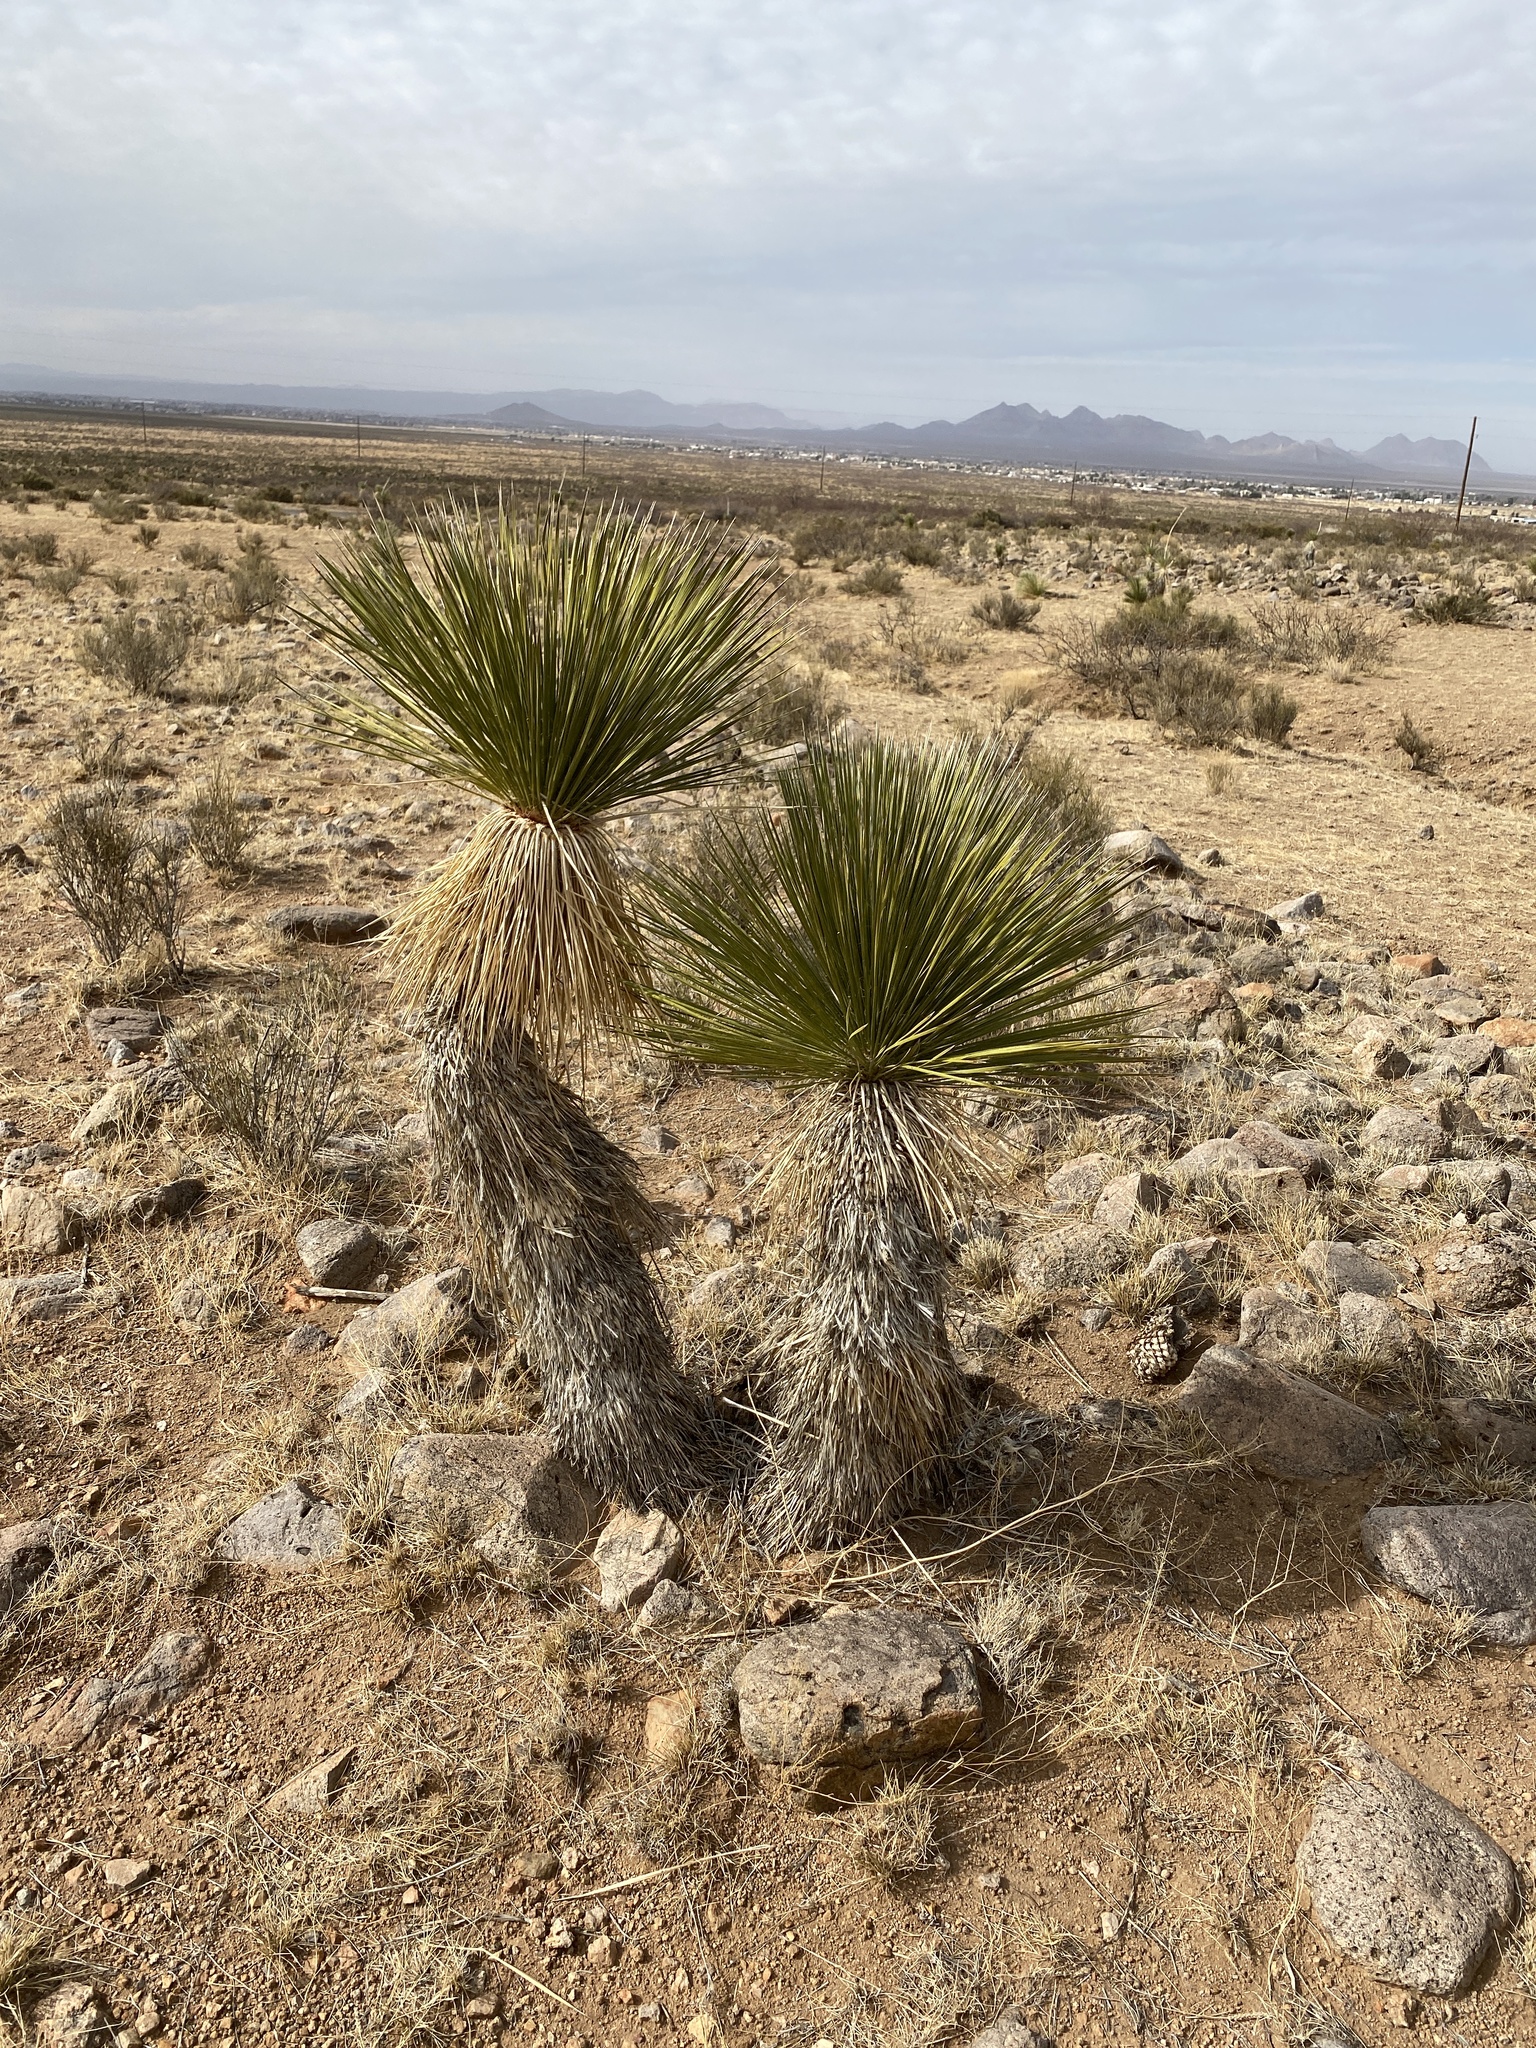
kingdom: Plantae
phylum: Tracheophyta
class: Liliopsida
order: Asparagales
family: Asparagaceae
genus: Yucca
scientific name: Yucca elata
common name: Palmella
